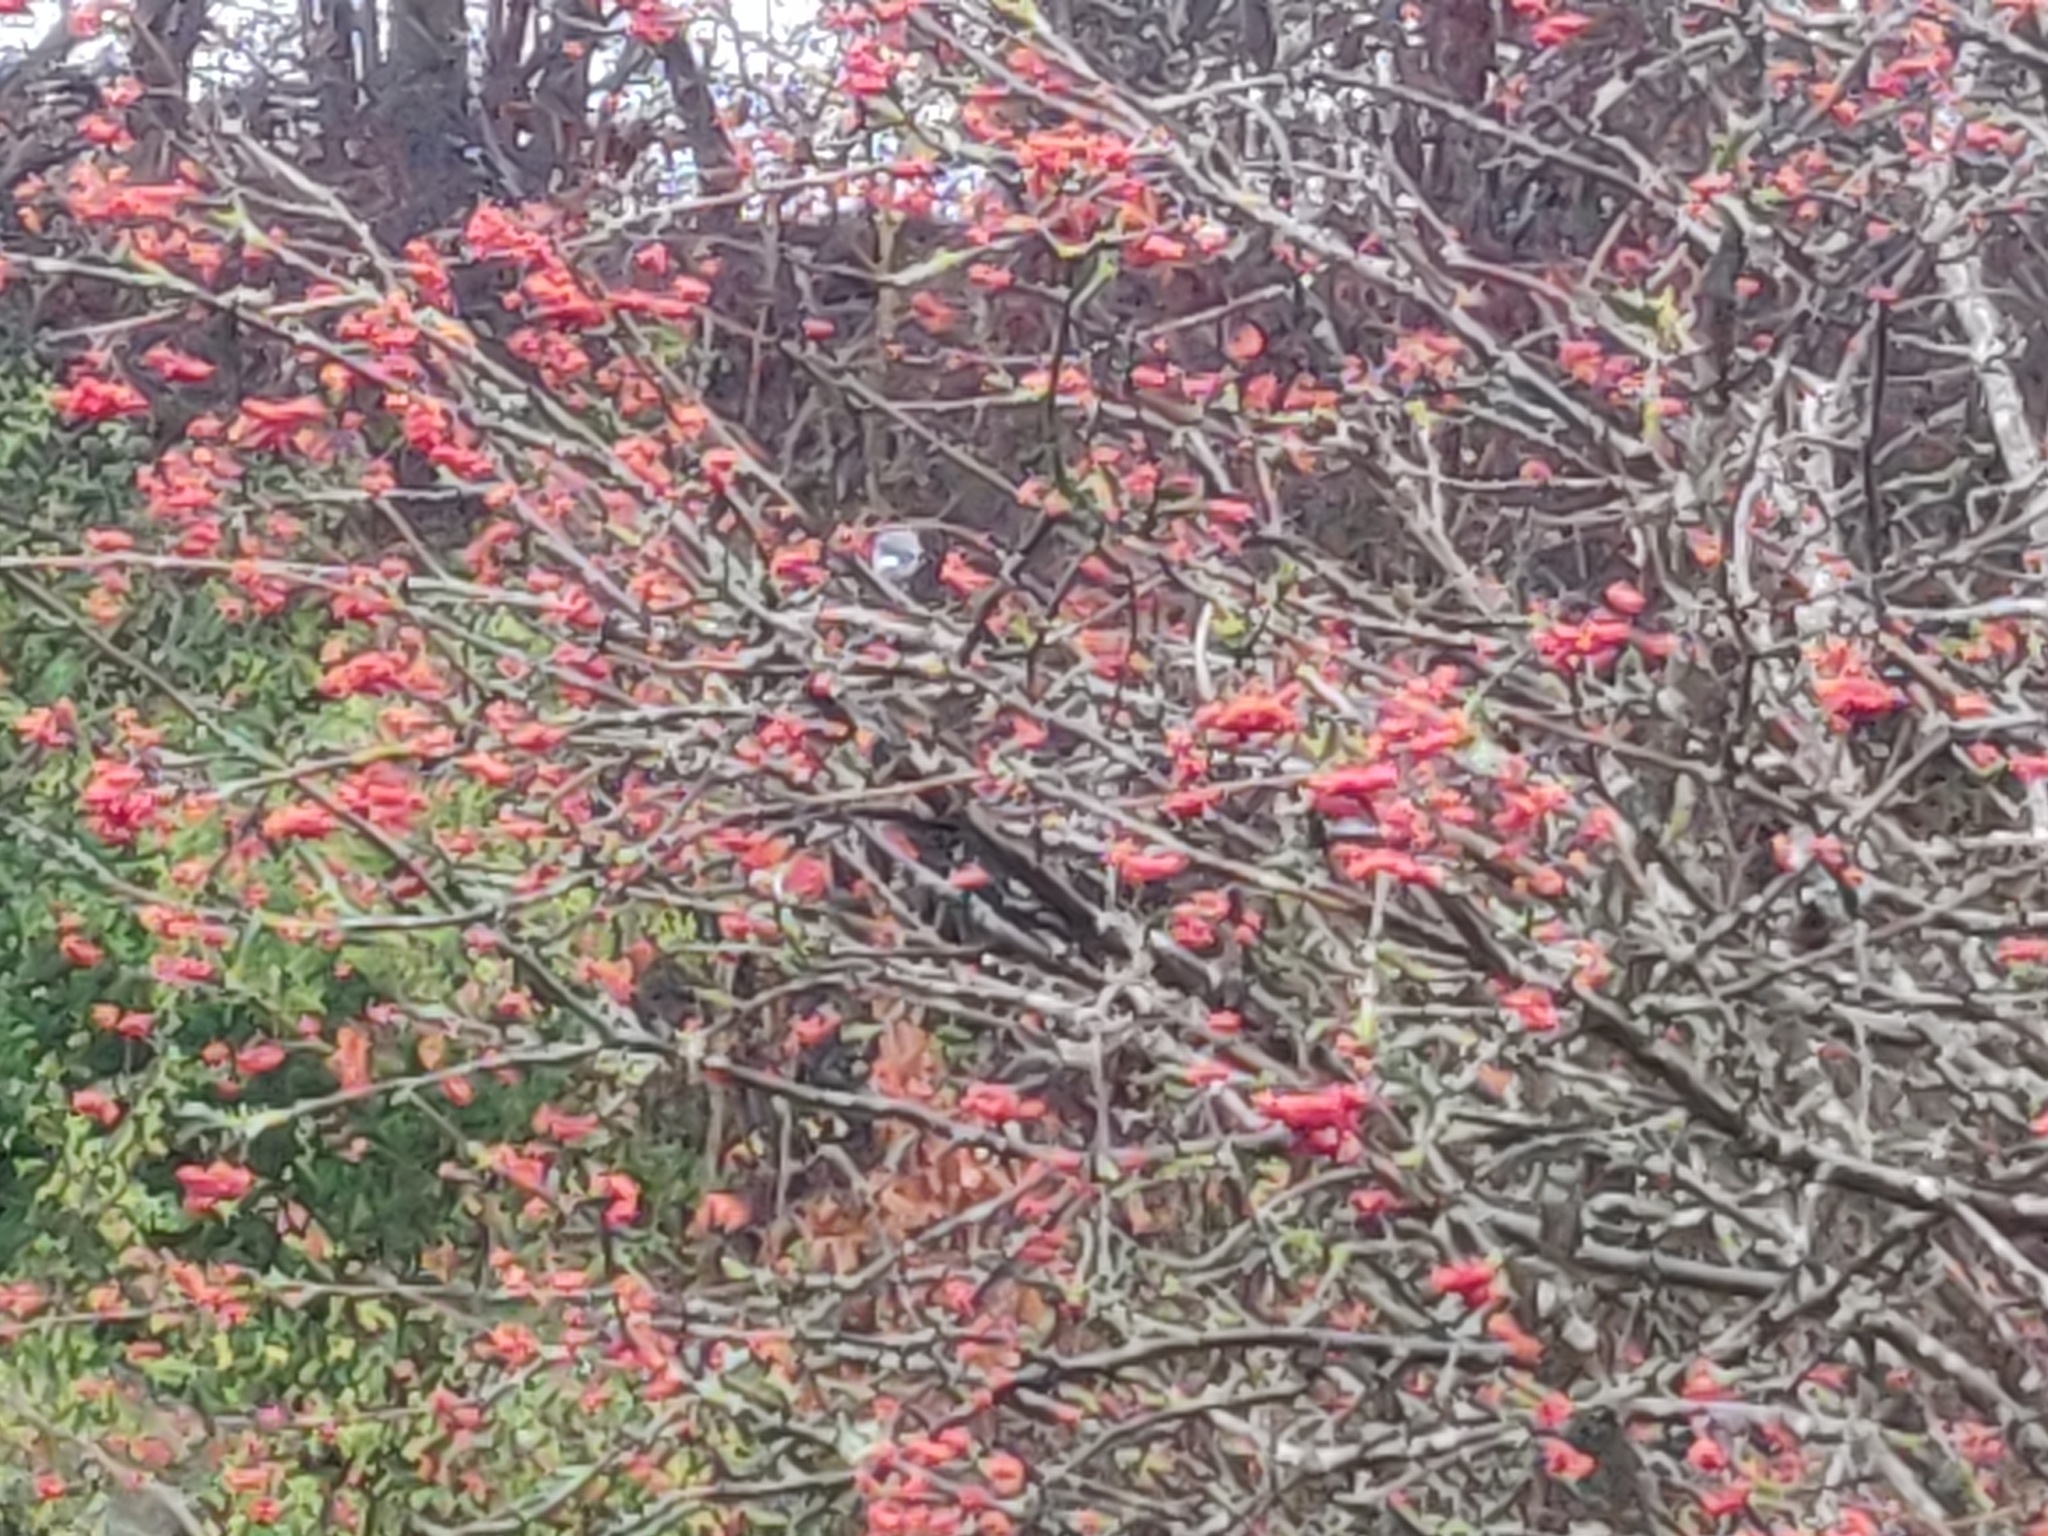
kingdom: Animalia
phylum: Chordata
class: Aves
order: Passeriformes
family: Fringillidae
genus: Pyrrhula
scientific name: Pyrrhula pyrrhula
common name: Eurasian bullfinch
